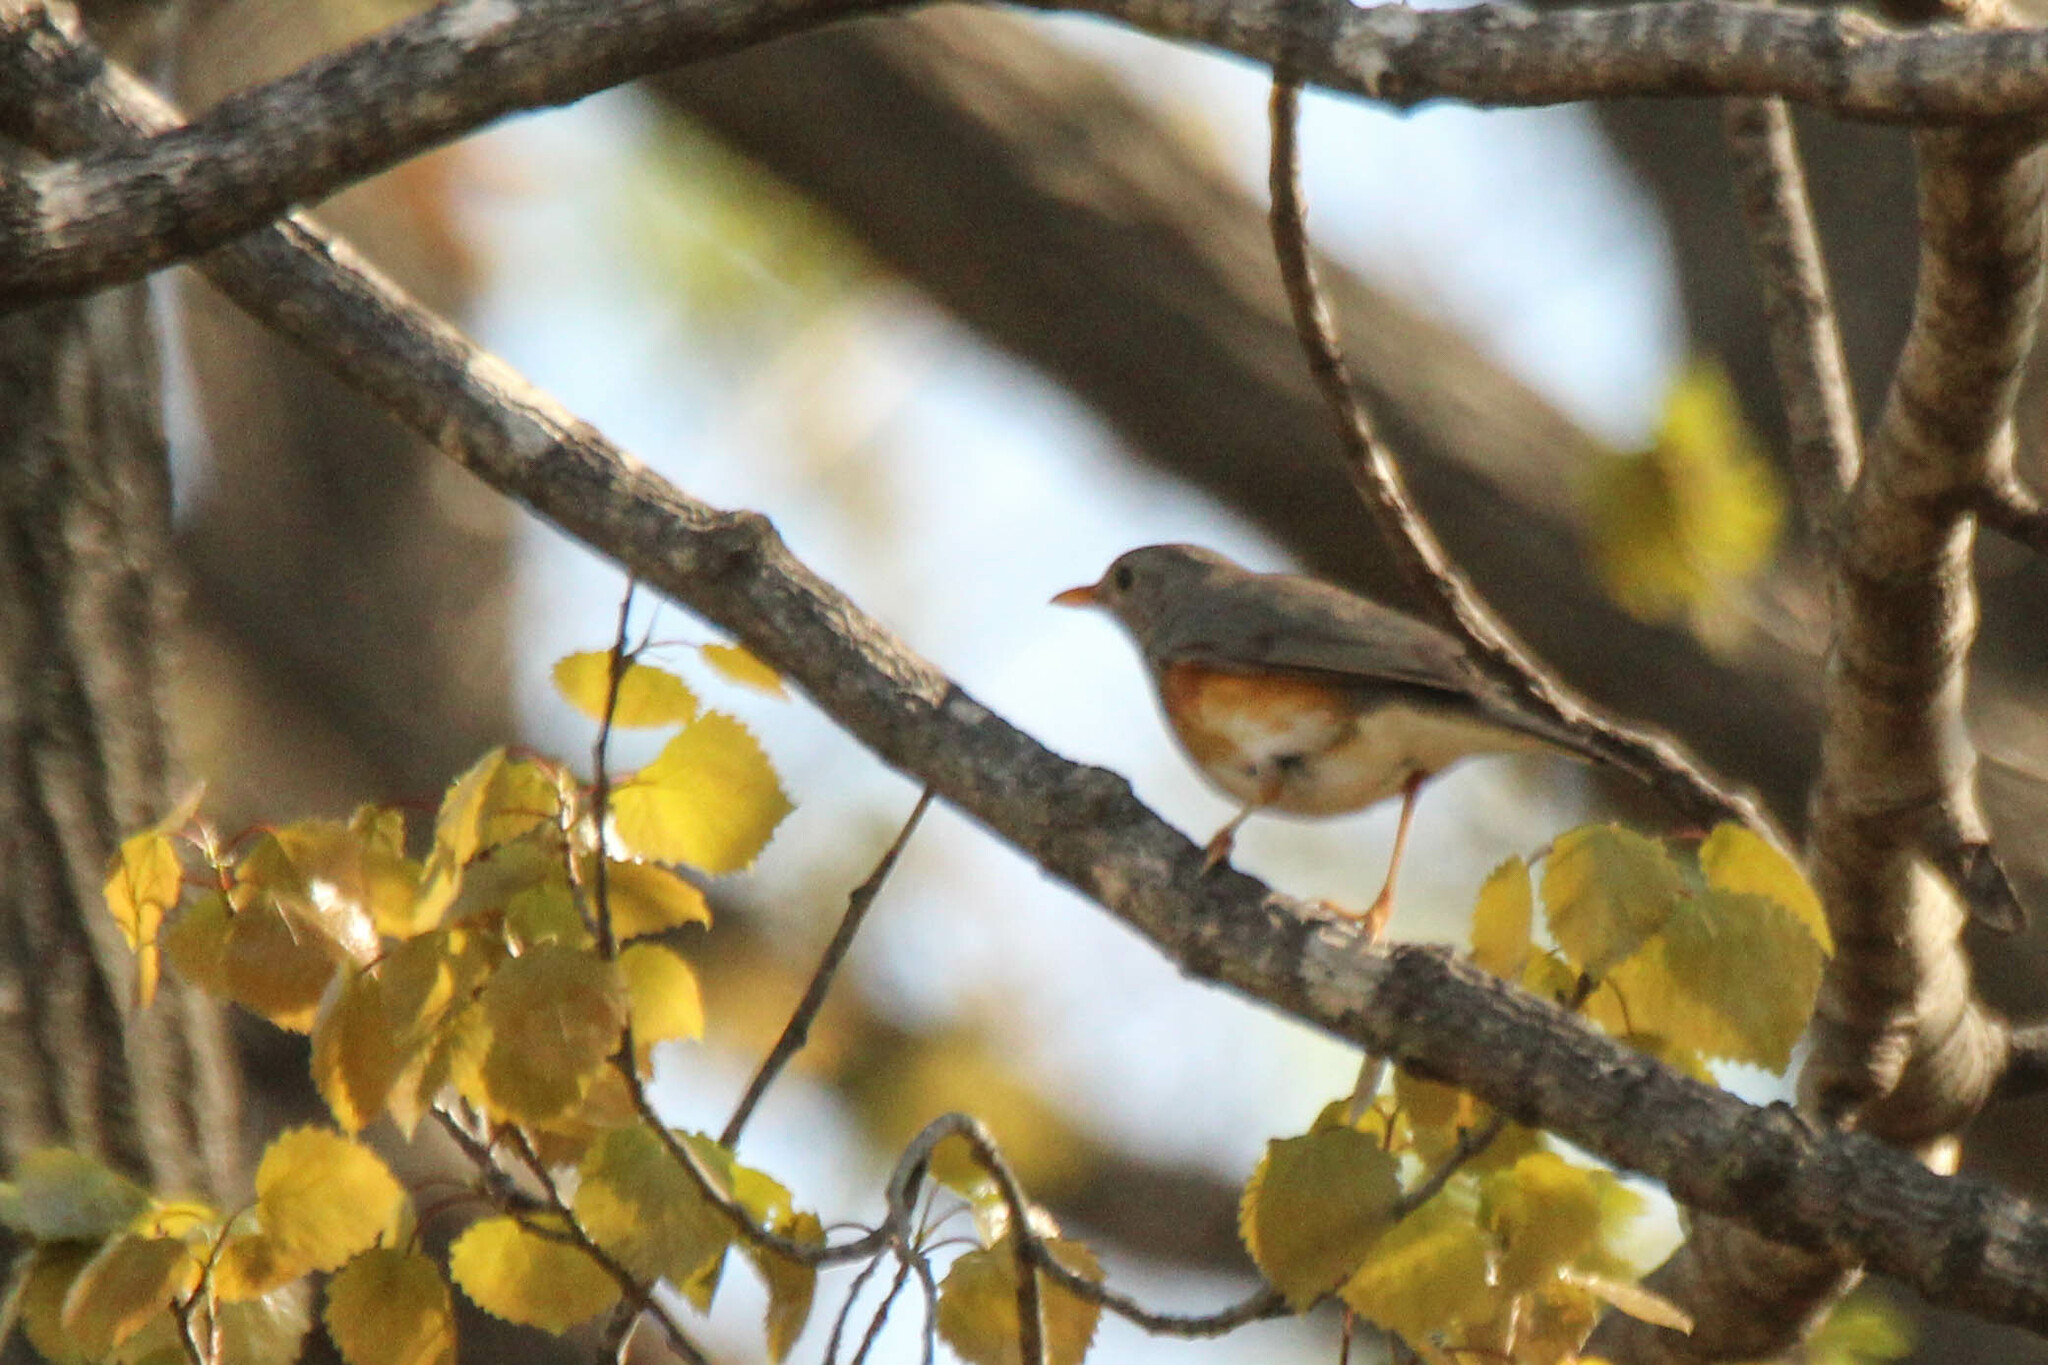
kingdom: Animalia
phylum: Chordata
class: Aves
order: Passeriformes
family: Turdidae
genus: Turdus
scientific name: Turdus hortulorum
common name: Grey-backed thrush
